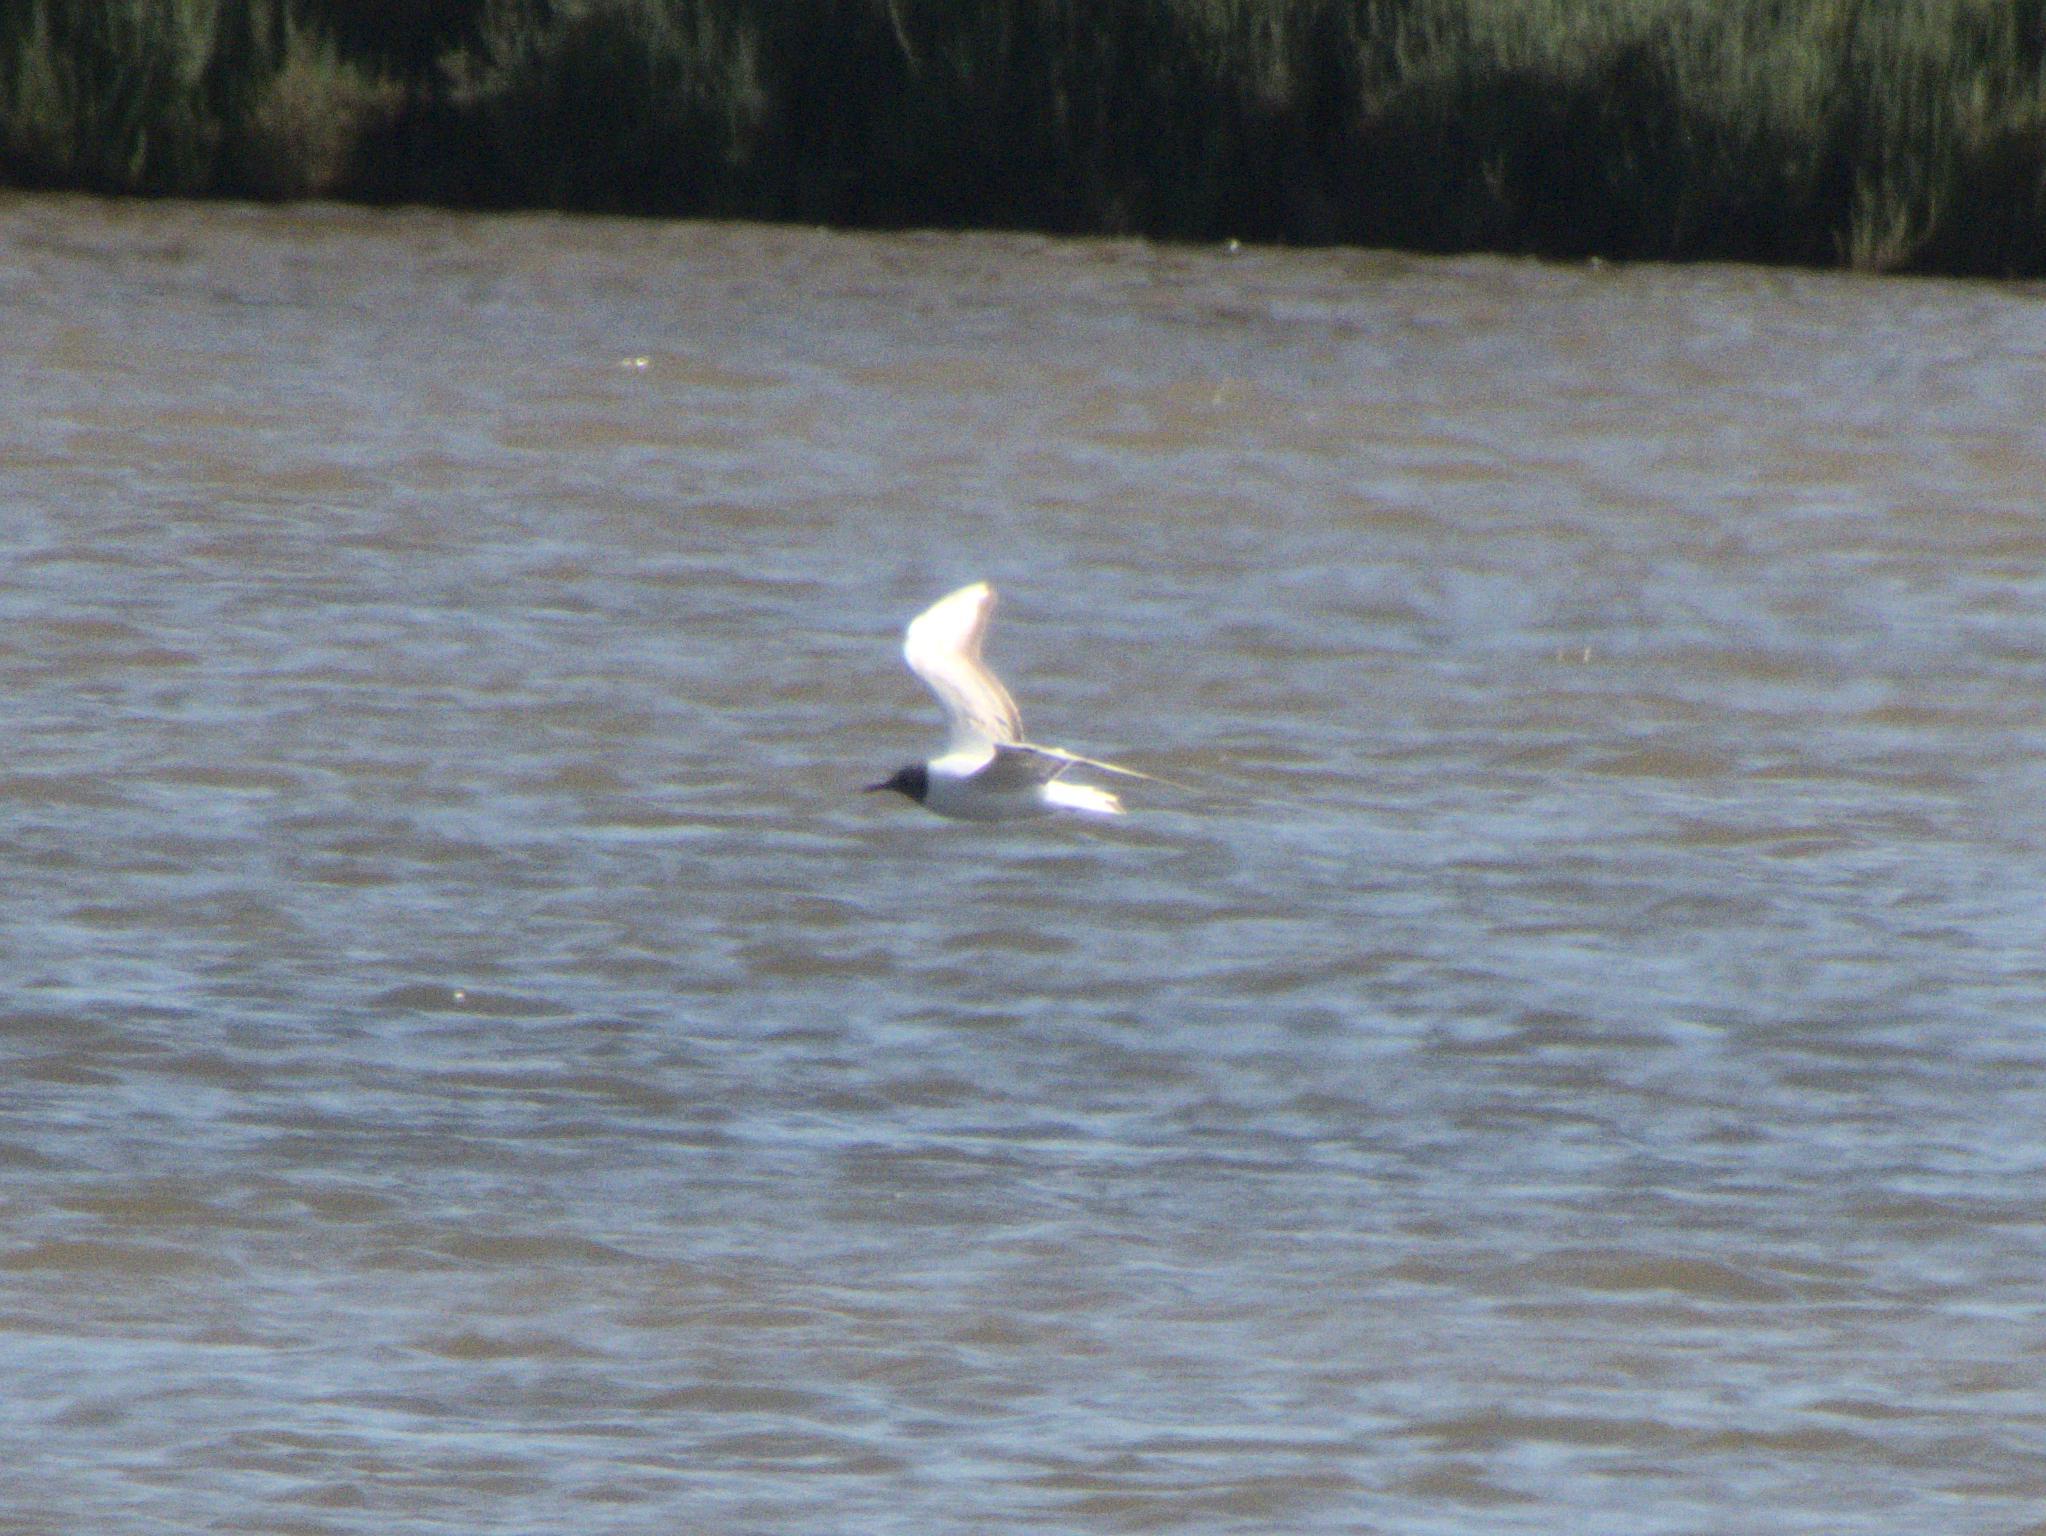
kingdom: Animalia
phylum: Chordata
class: Aves
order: Charadriiformes
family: Laridae
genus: Chroicocephalus
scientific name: Chroicocephalus ridibundus
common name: Black-headed gull
